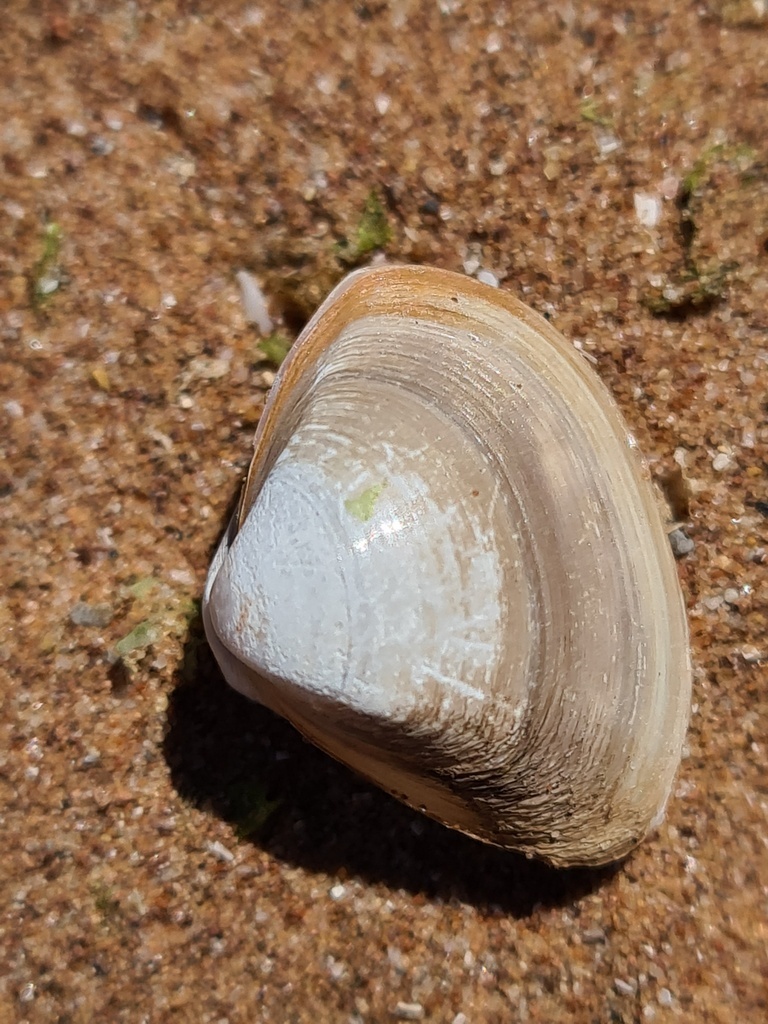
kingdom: Animalia
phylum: Mollusca
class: Bivalvia
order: Venerida
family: Mactridae
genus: Spisula
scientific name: Spisula subtruncata
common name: Cut trough shell
